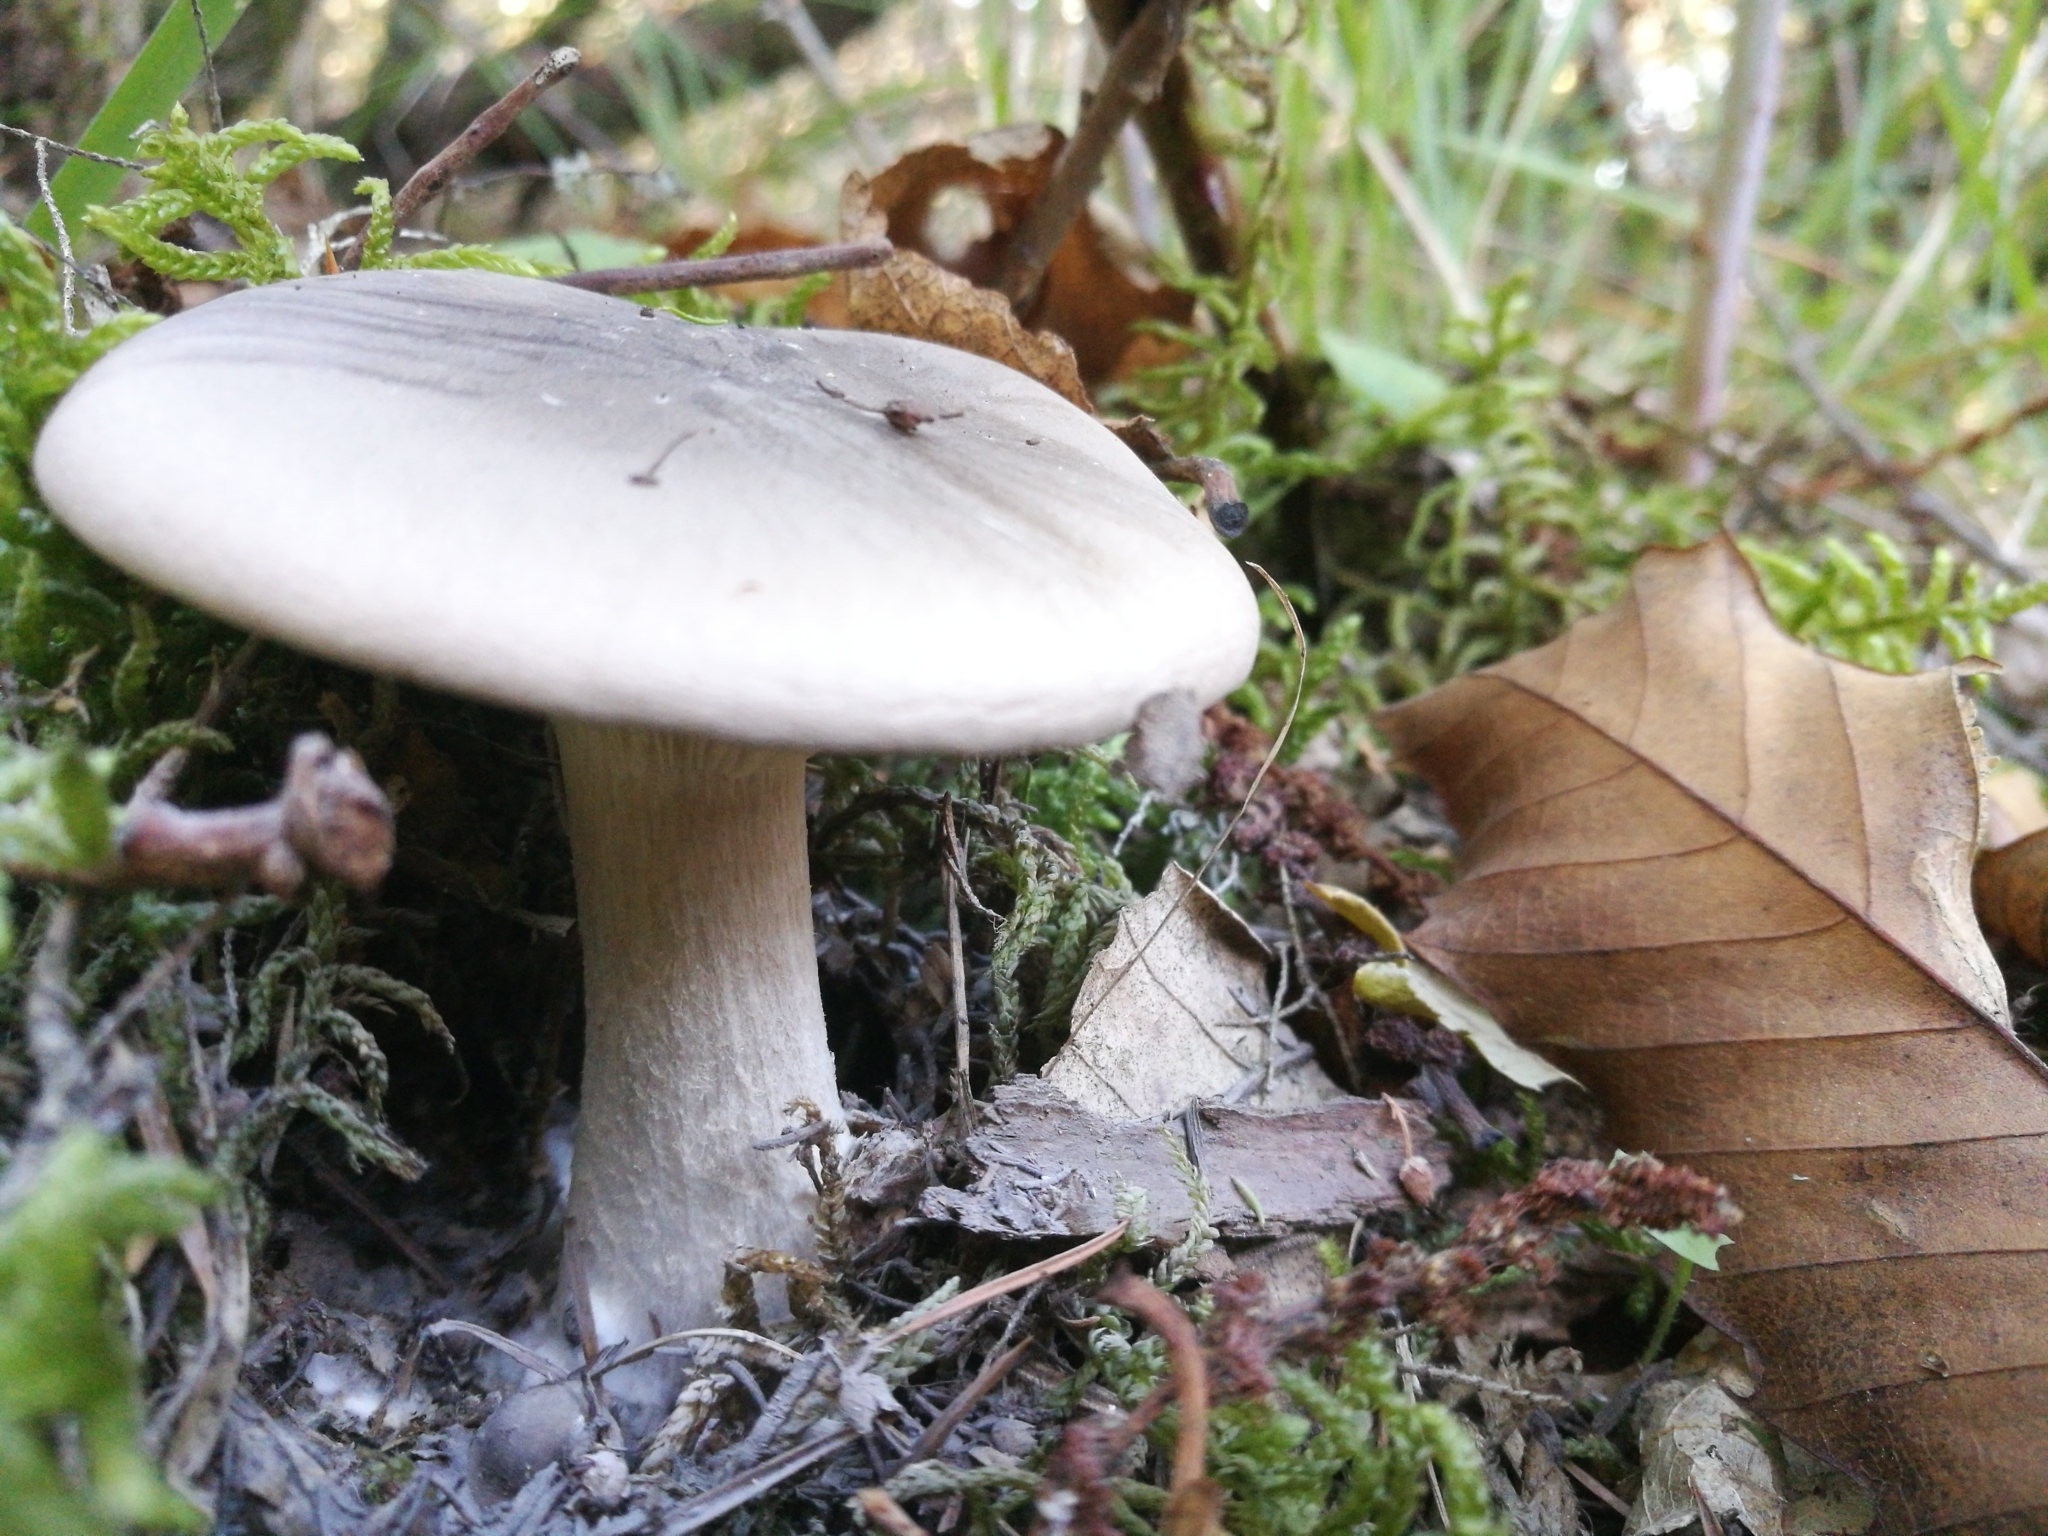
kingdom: Fungi
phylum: Basidiomycota
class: Agaricomycetes
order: Agaricales
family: Tricholomataceae
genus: Clitocybe
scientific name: Clitocybe nebularis
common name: Clouded agaric
